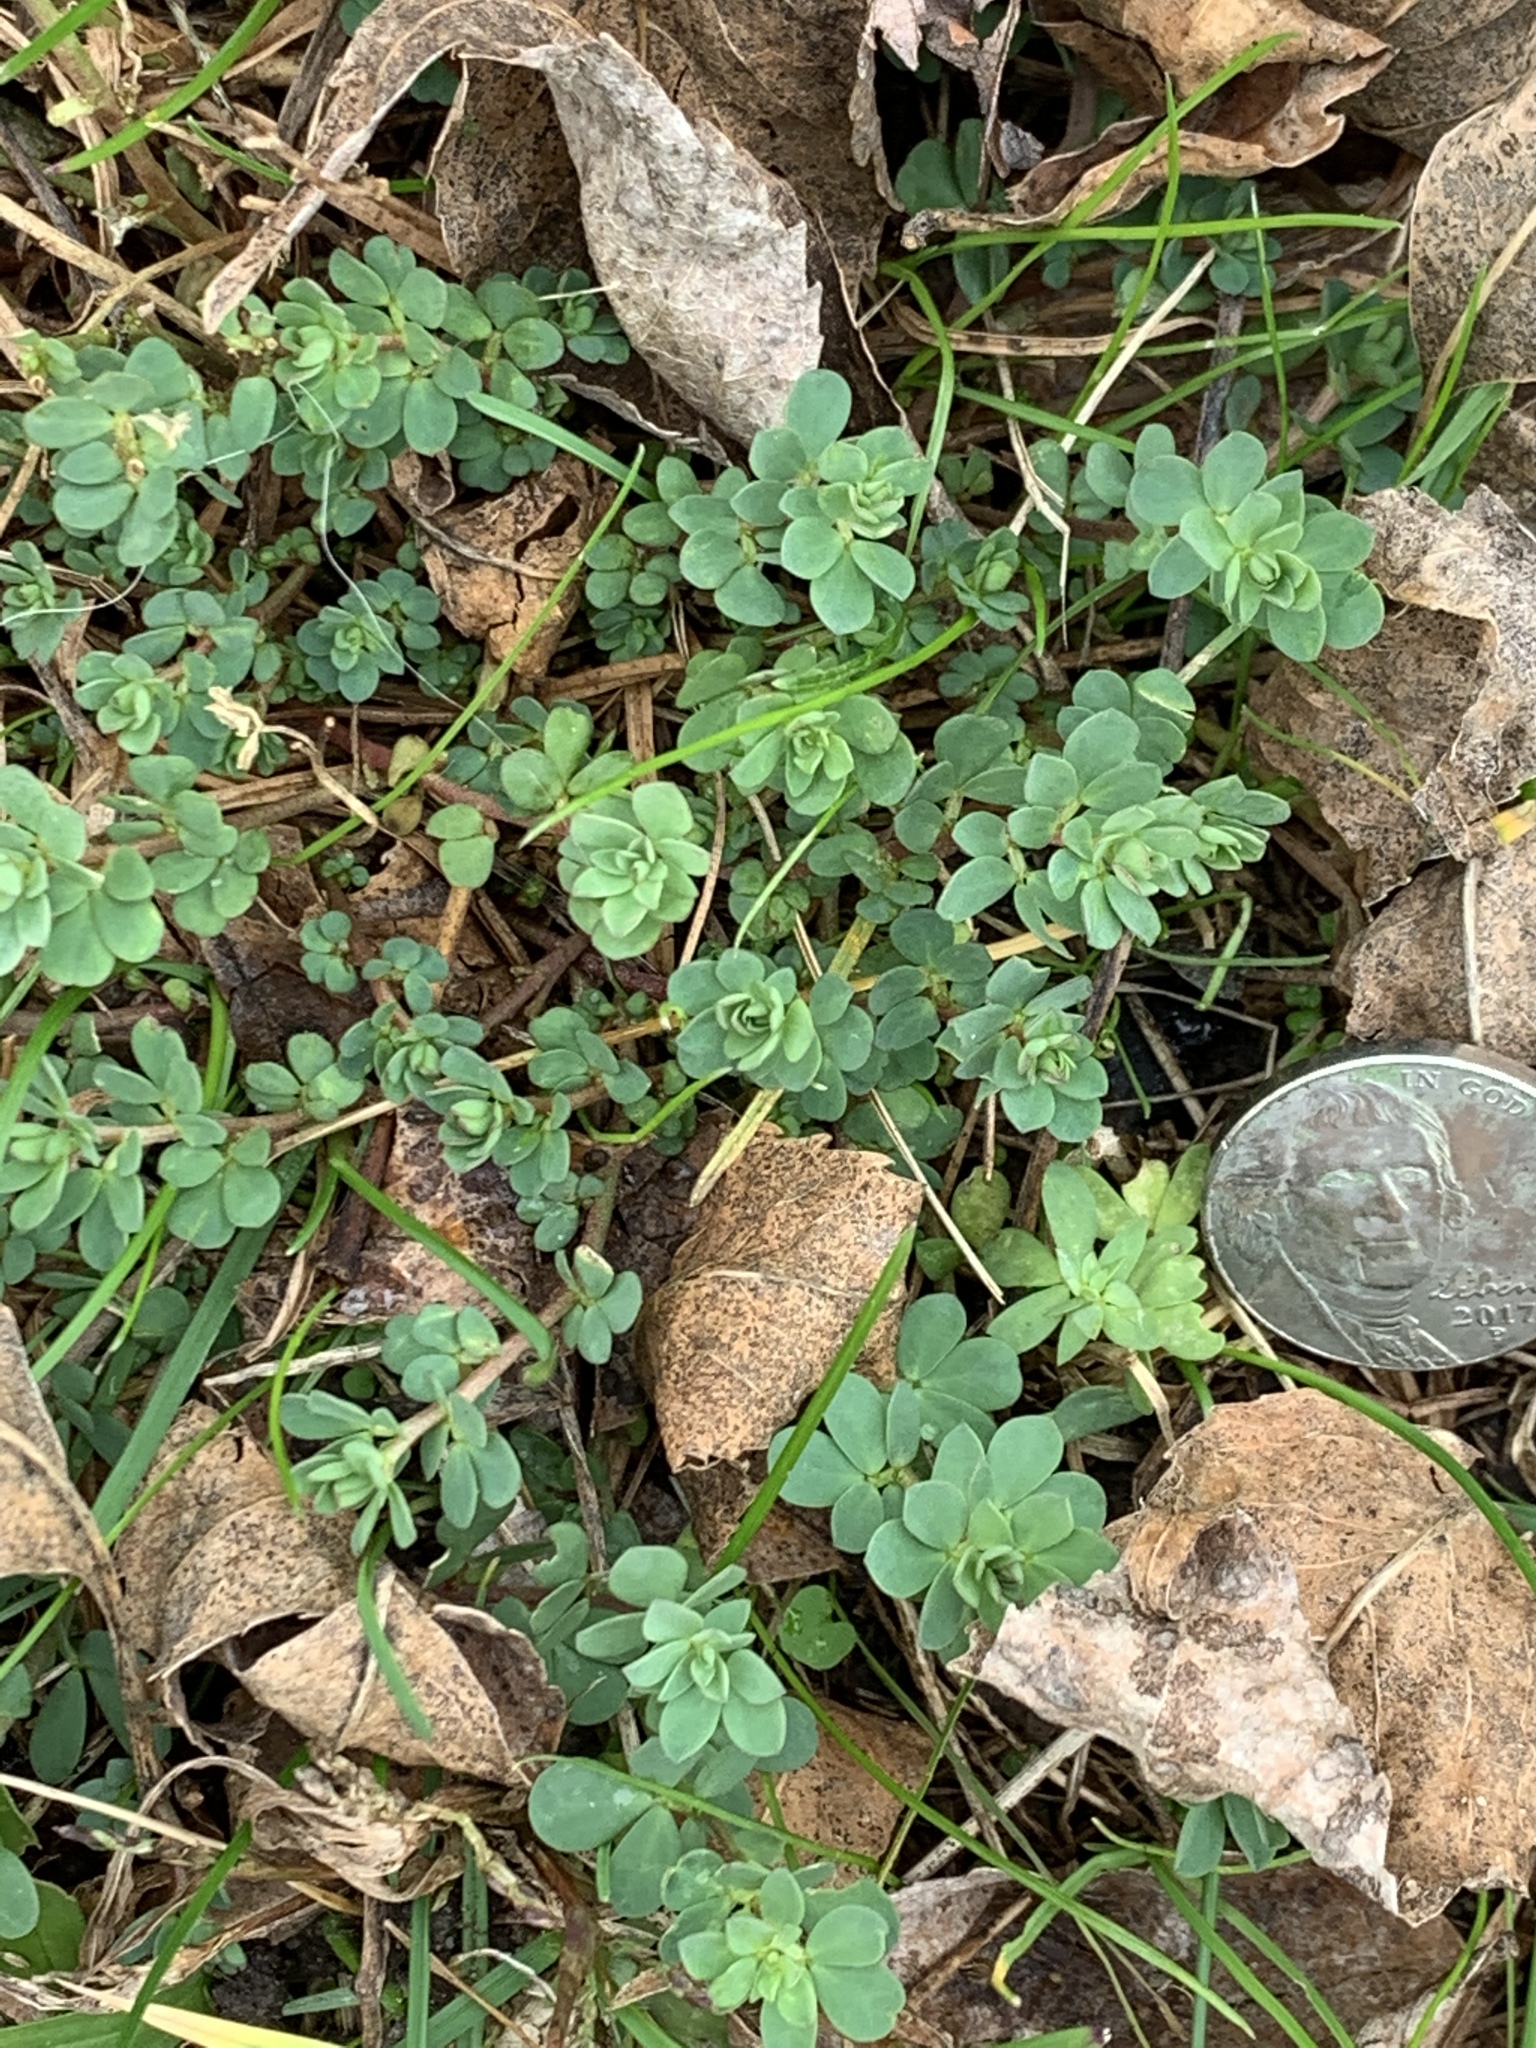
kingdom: Plantae
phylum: Tracheophyta
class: Magnoliopsida
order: Fabales
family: Fabaceae
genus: Lotus
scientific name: Lotus corniculatus
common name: Common bird's-foot-trefoil
